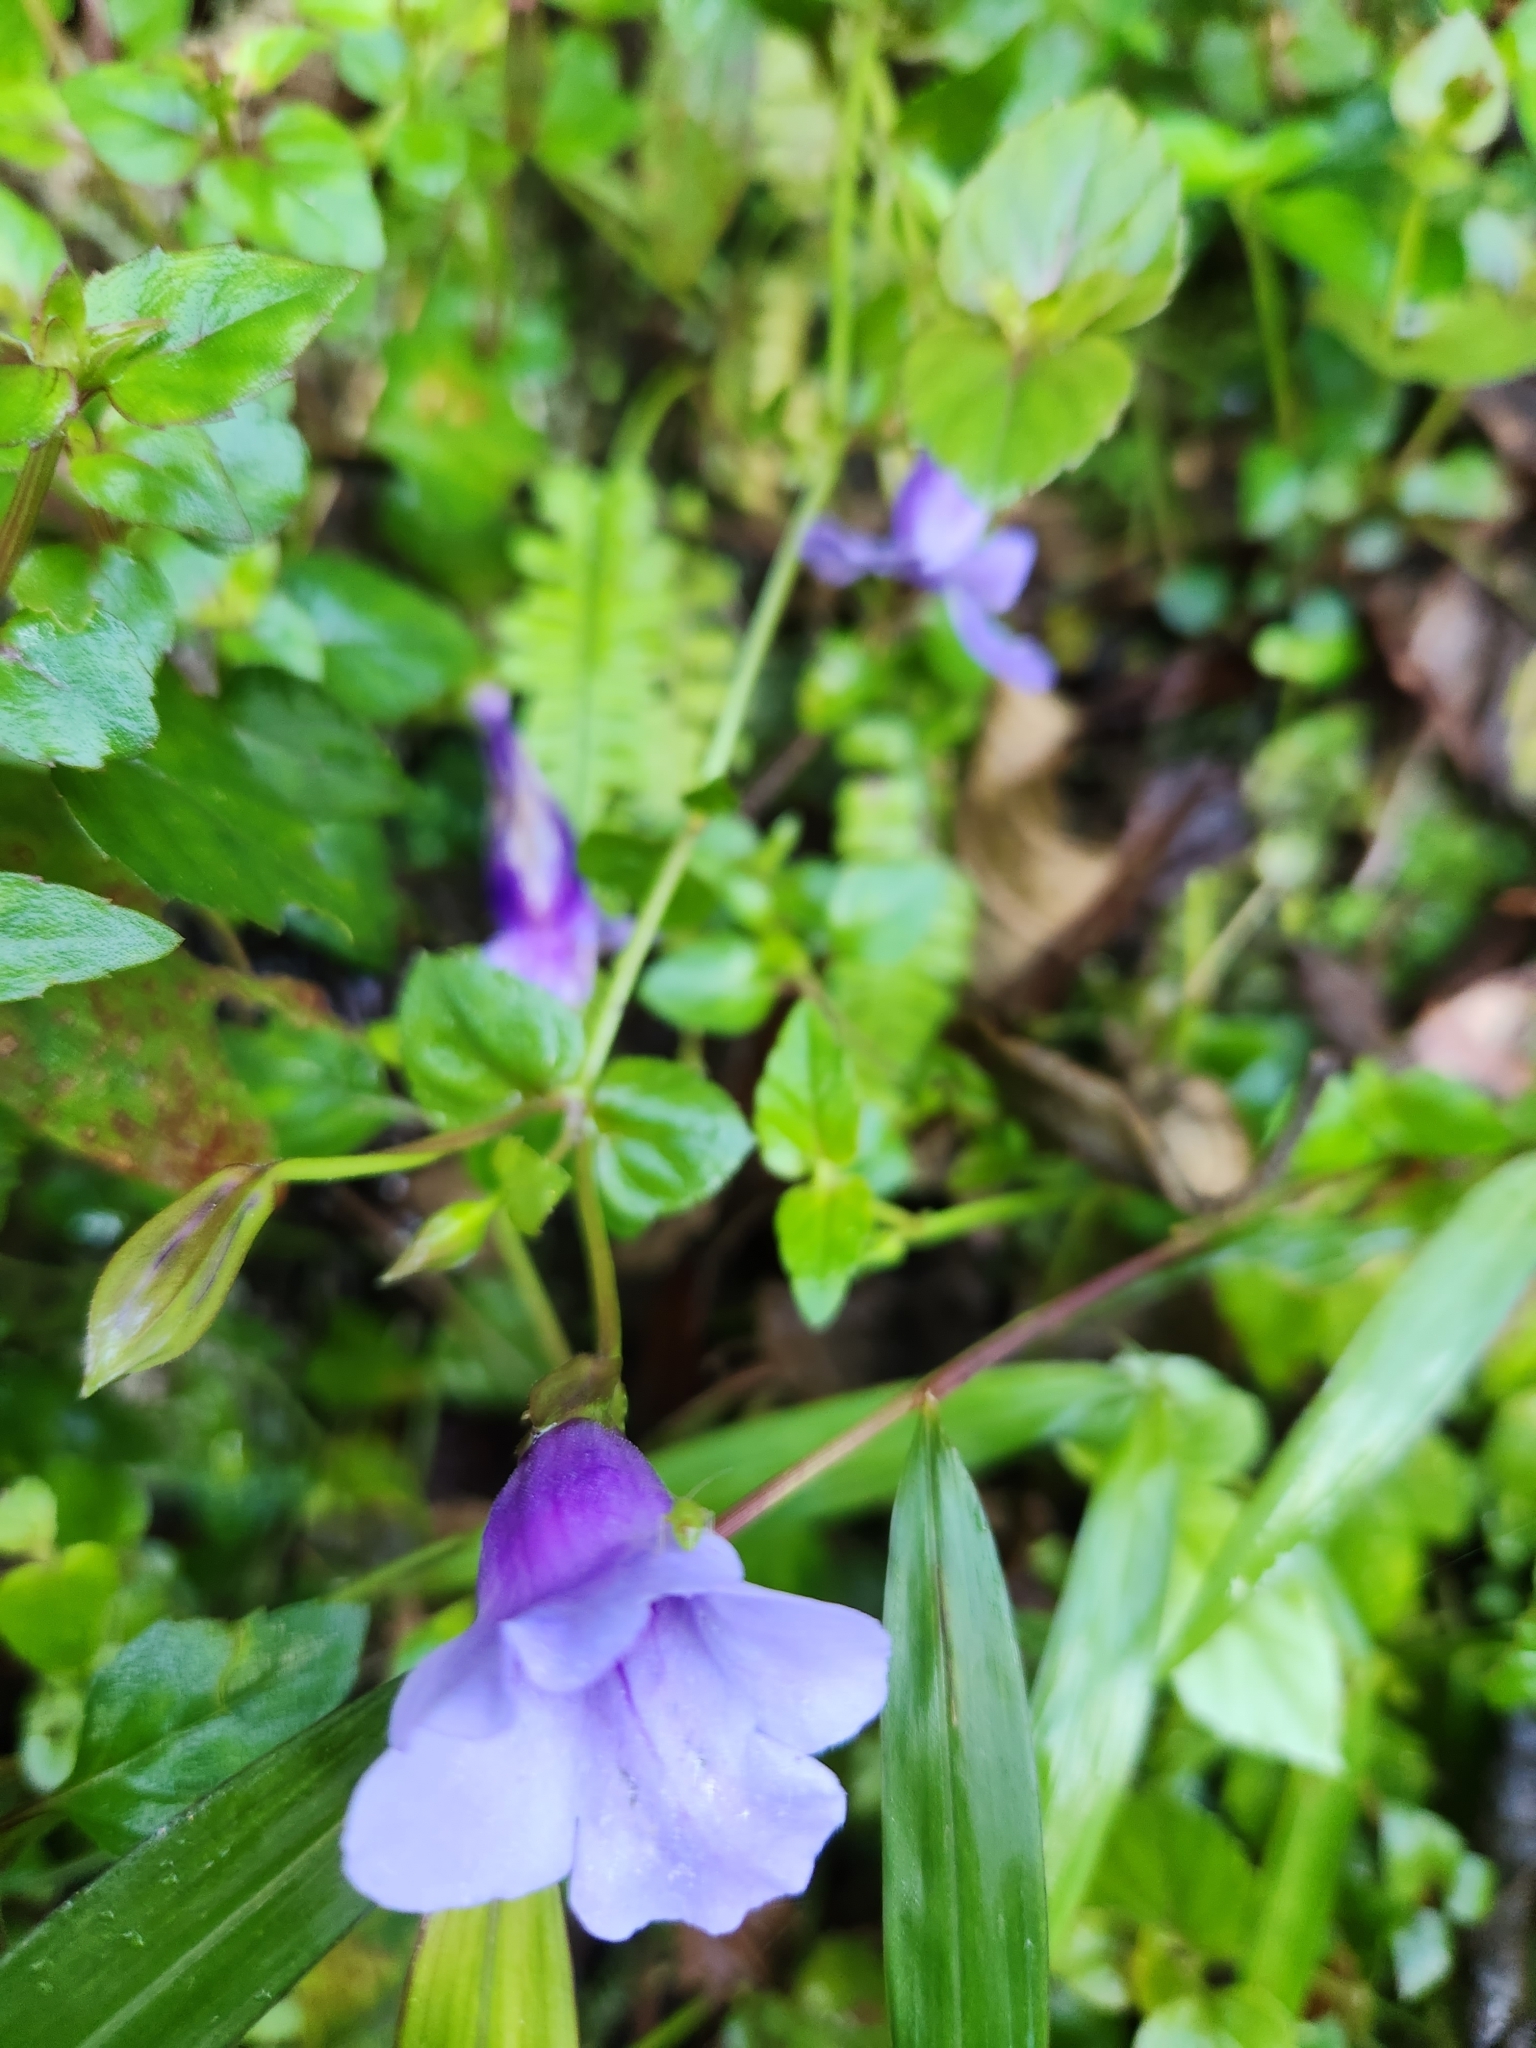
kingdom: Plantae
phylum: Tracheophyta
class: Magnoliopsida
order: Lamiales
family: Linderniaceae
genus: Torenia
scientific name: Torenia concolor
